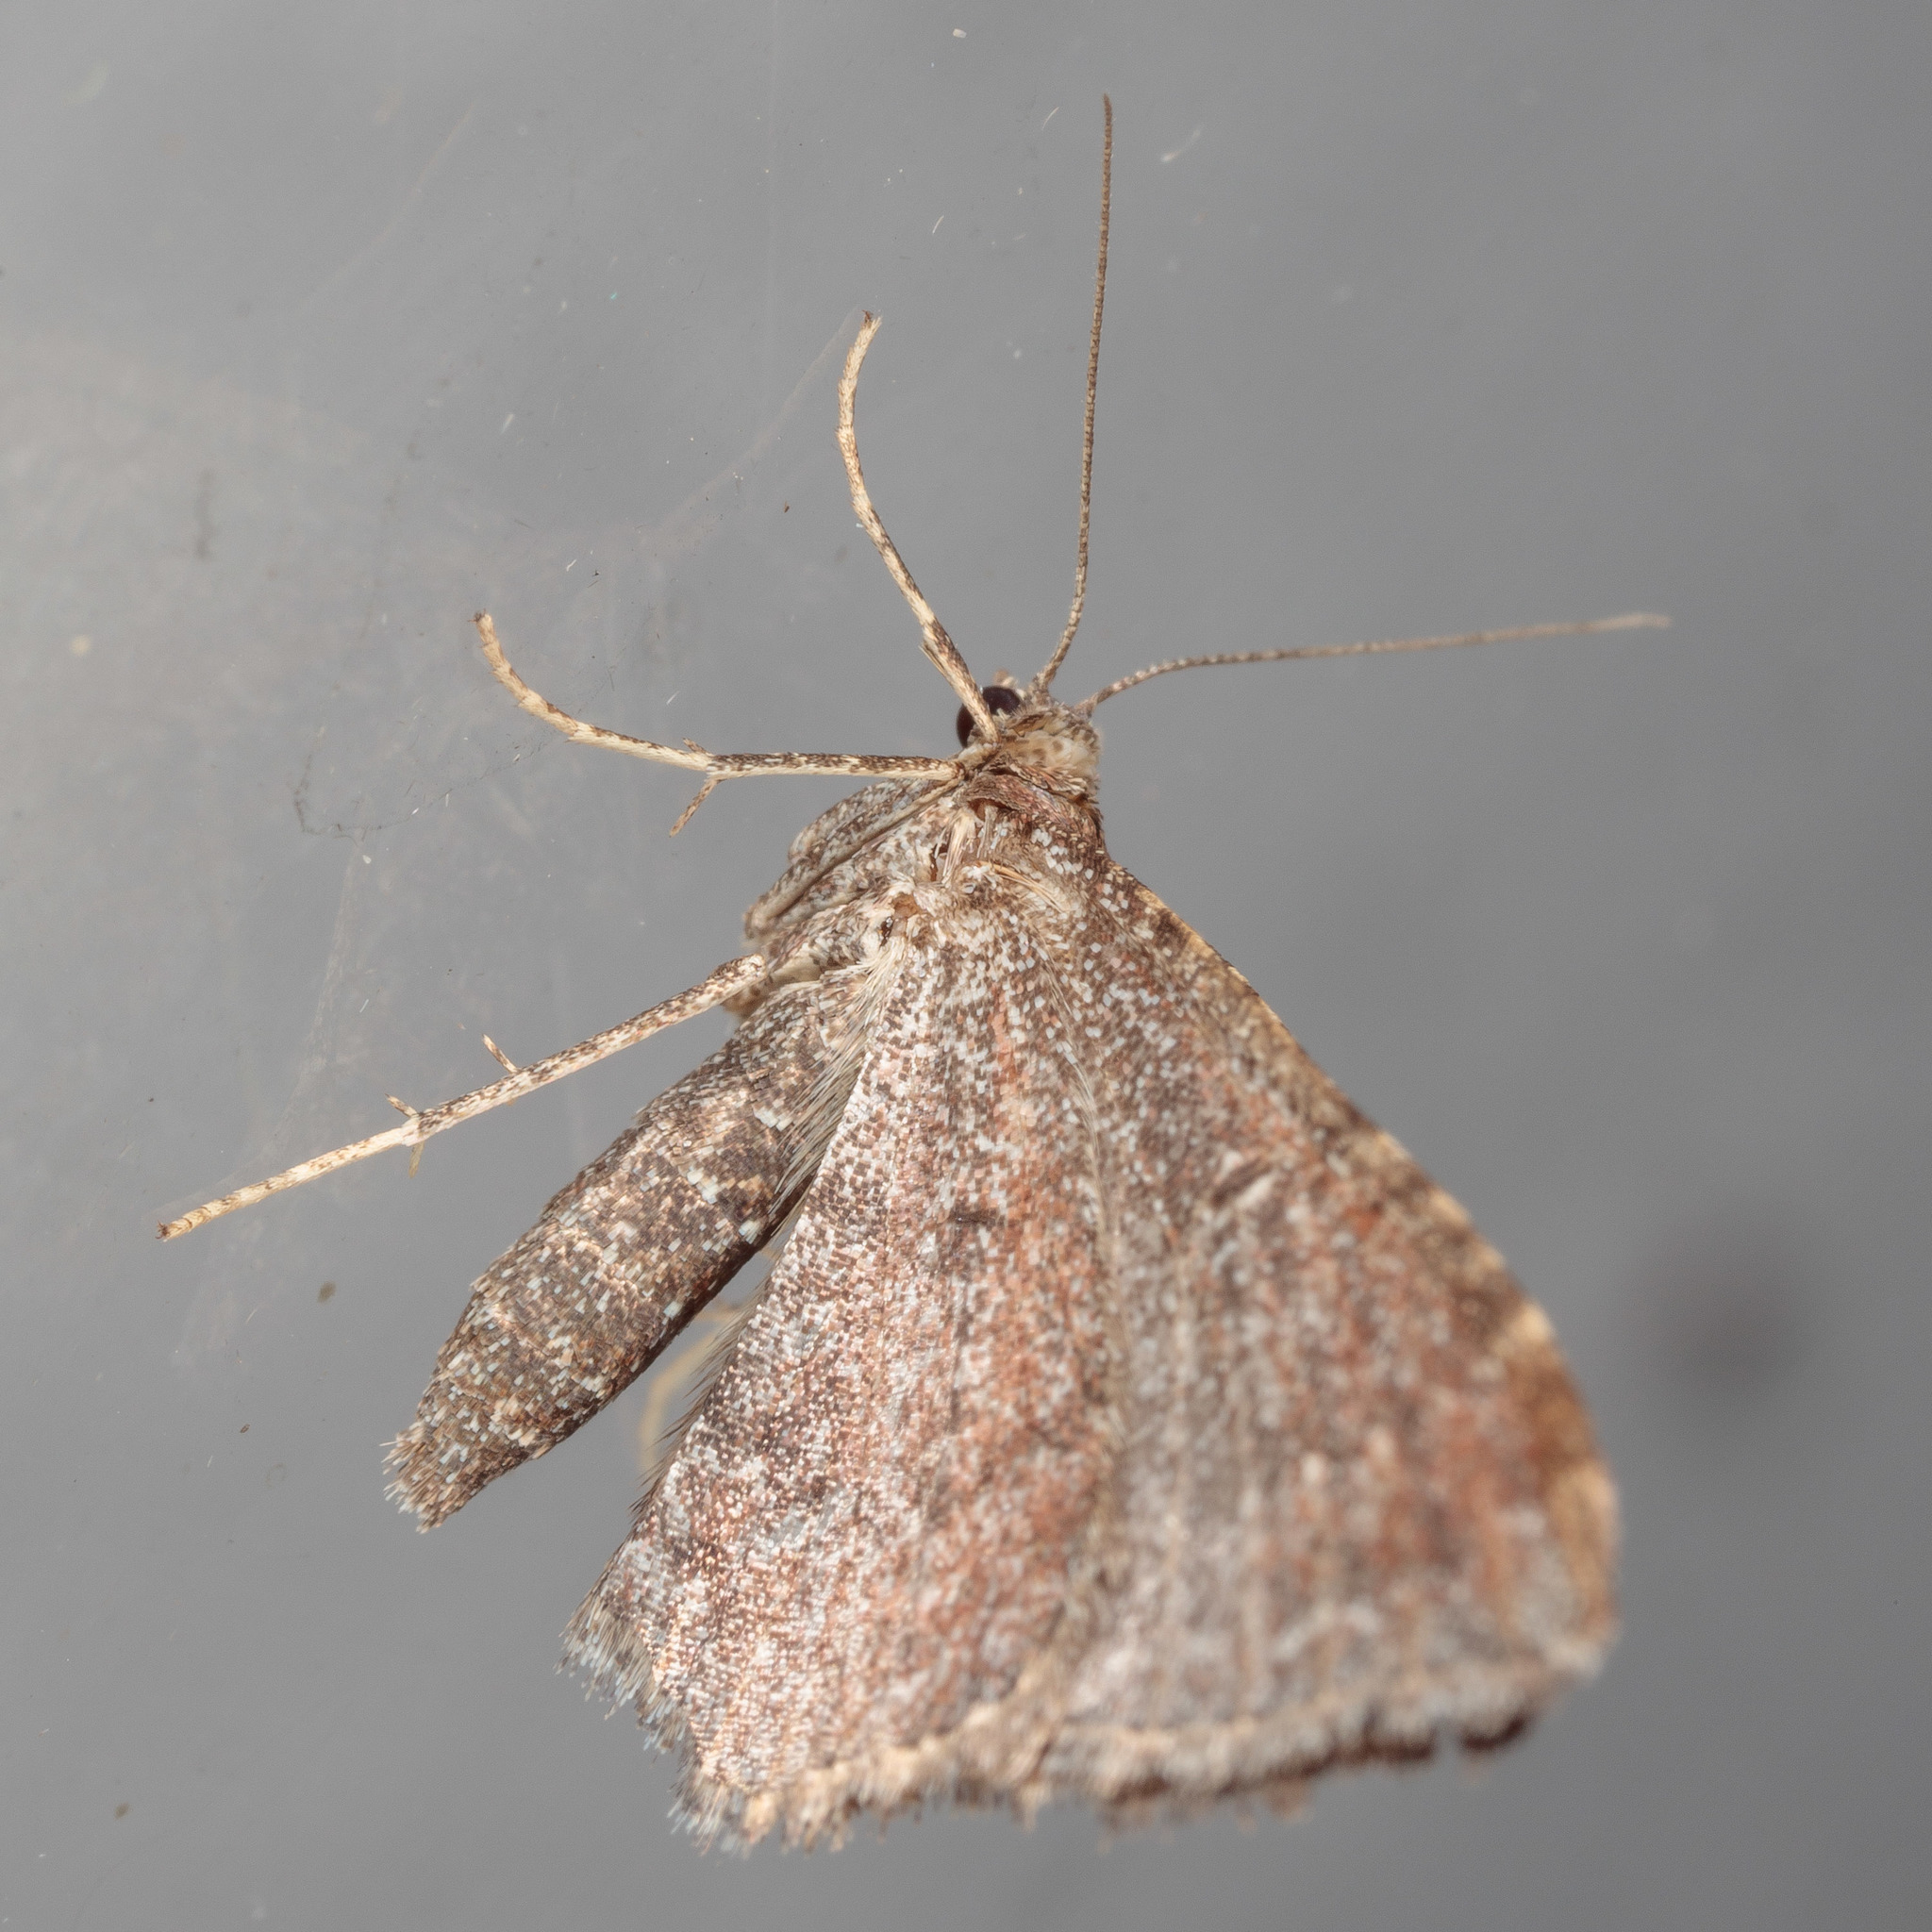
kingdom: Animalia
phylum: Arthropoda
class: Insecta
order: Lepidoptera
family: Geometridae
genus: Orthonama
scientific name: Orthonama obstipata
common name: The gem
